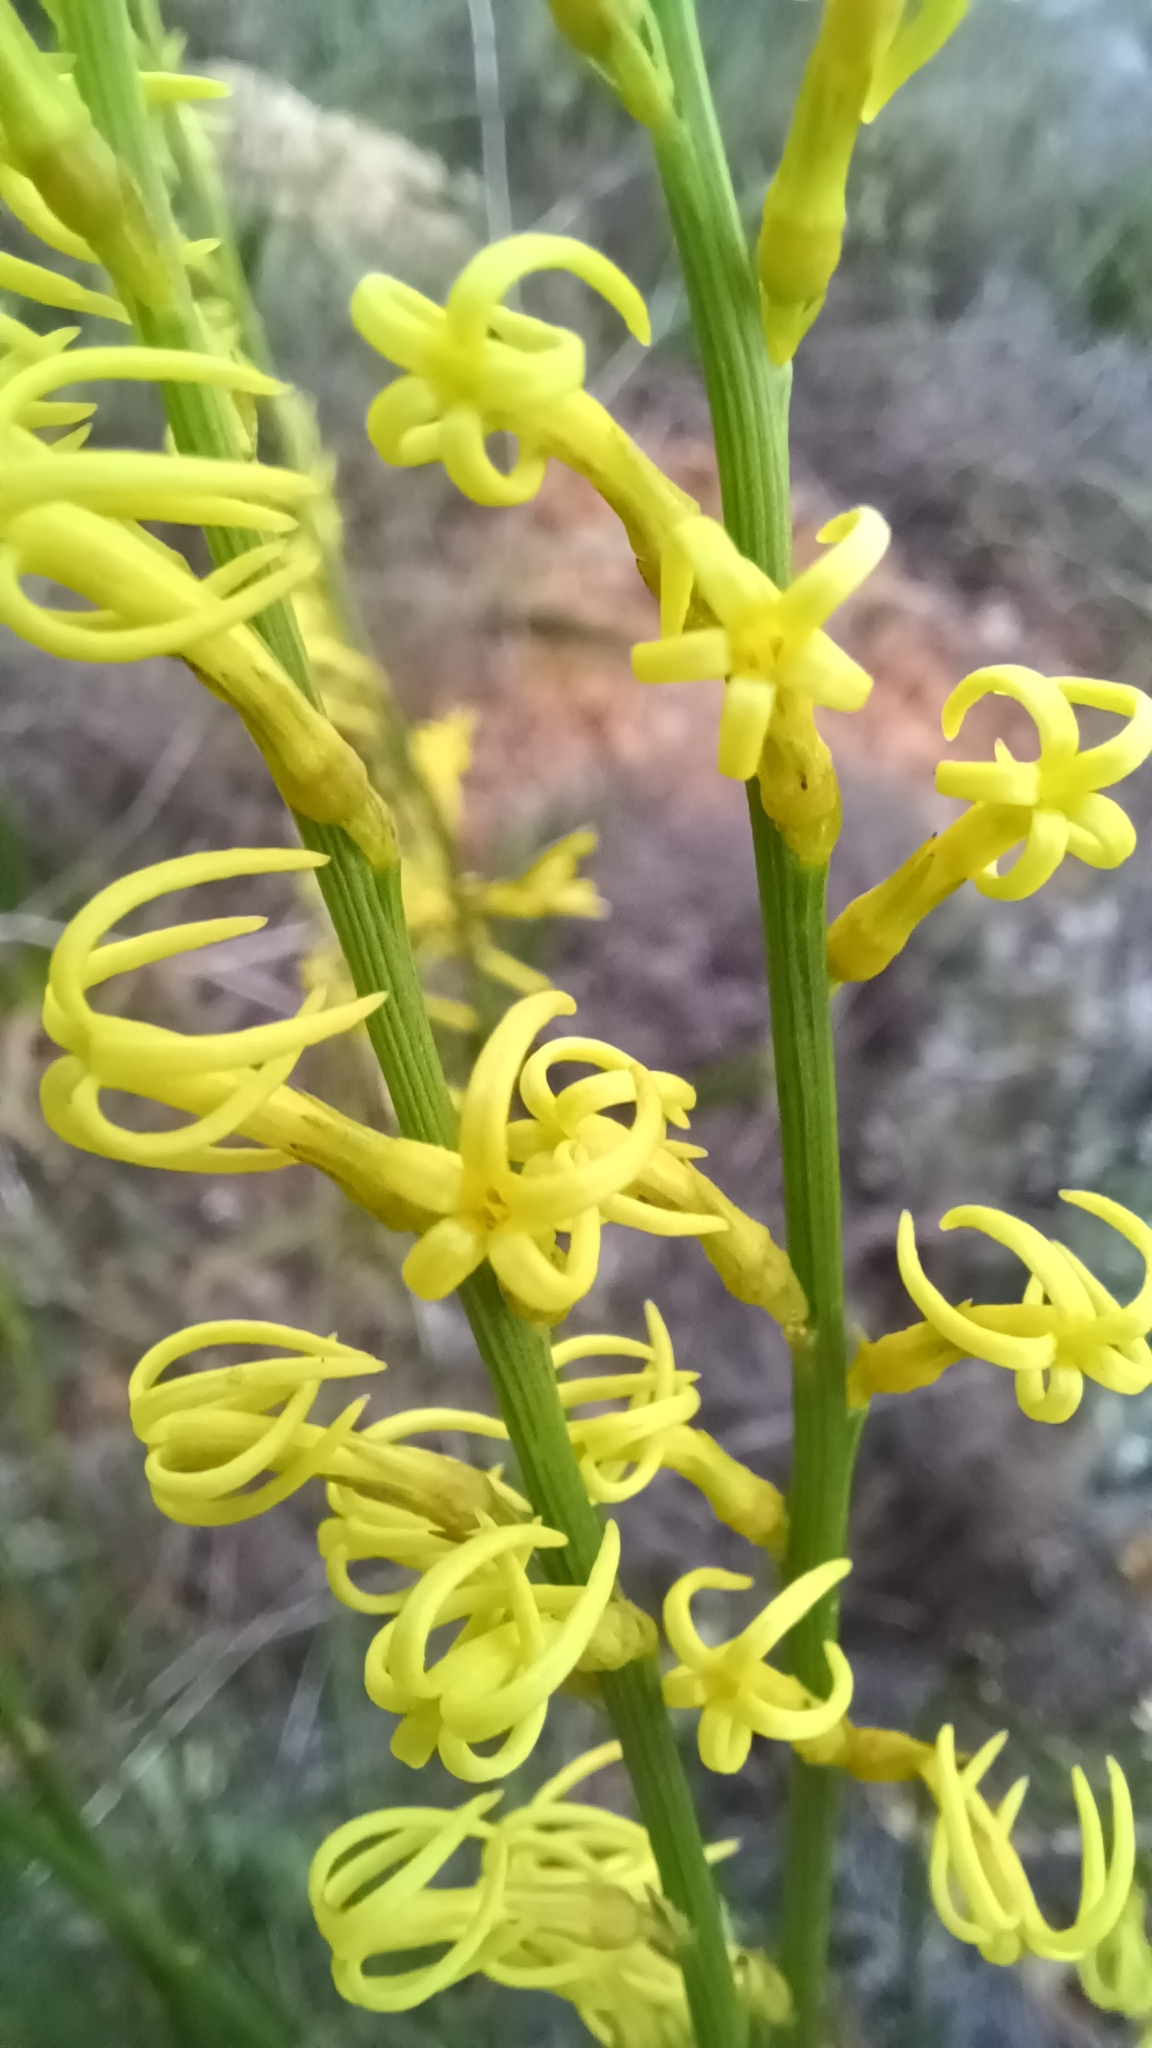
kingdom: Plantae
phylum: Tracheophyta
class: Magnoliopsida
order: Celastrales
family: Celastraceae
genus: Tripterococcus
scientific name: Tripterococcus brunonis
